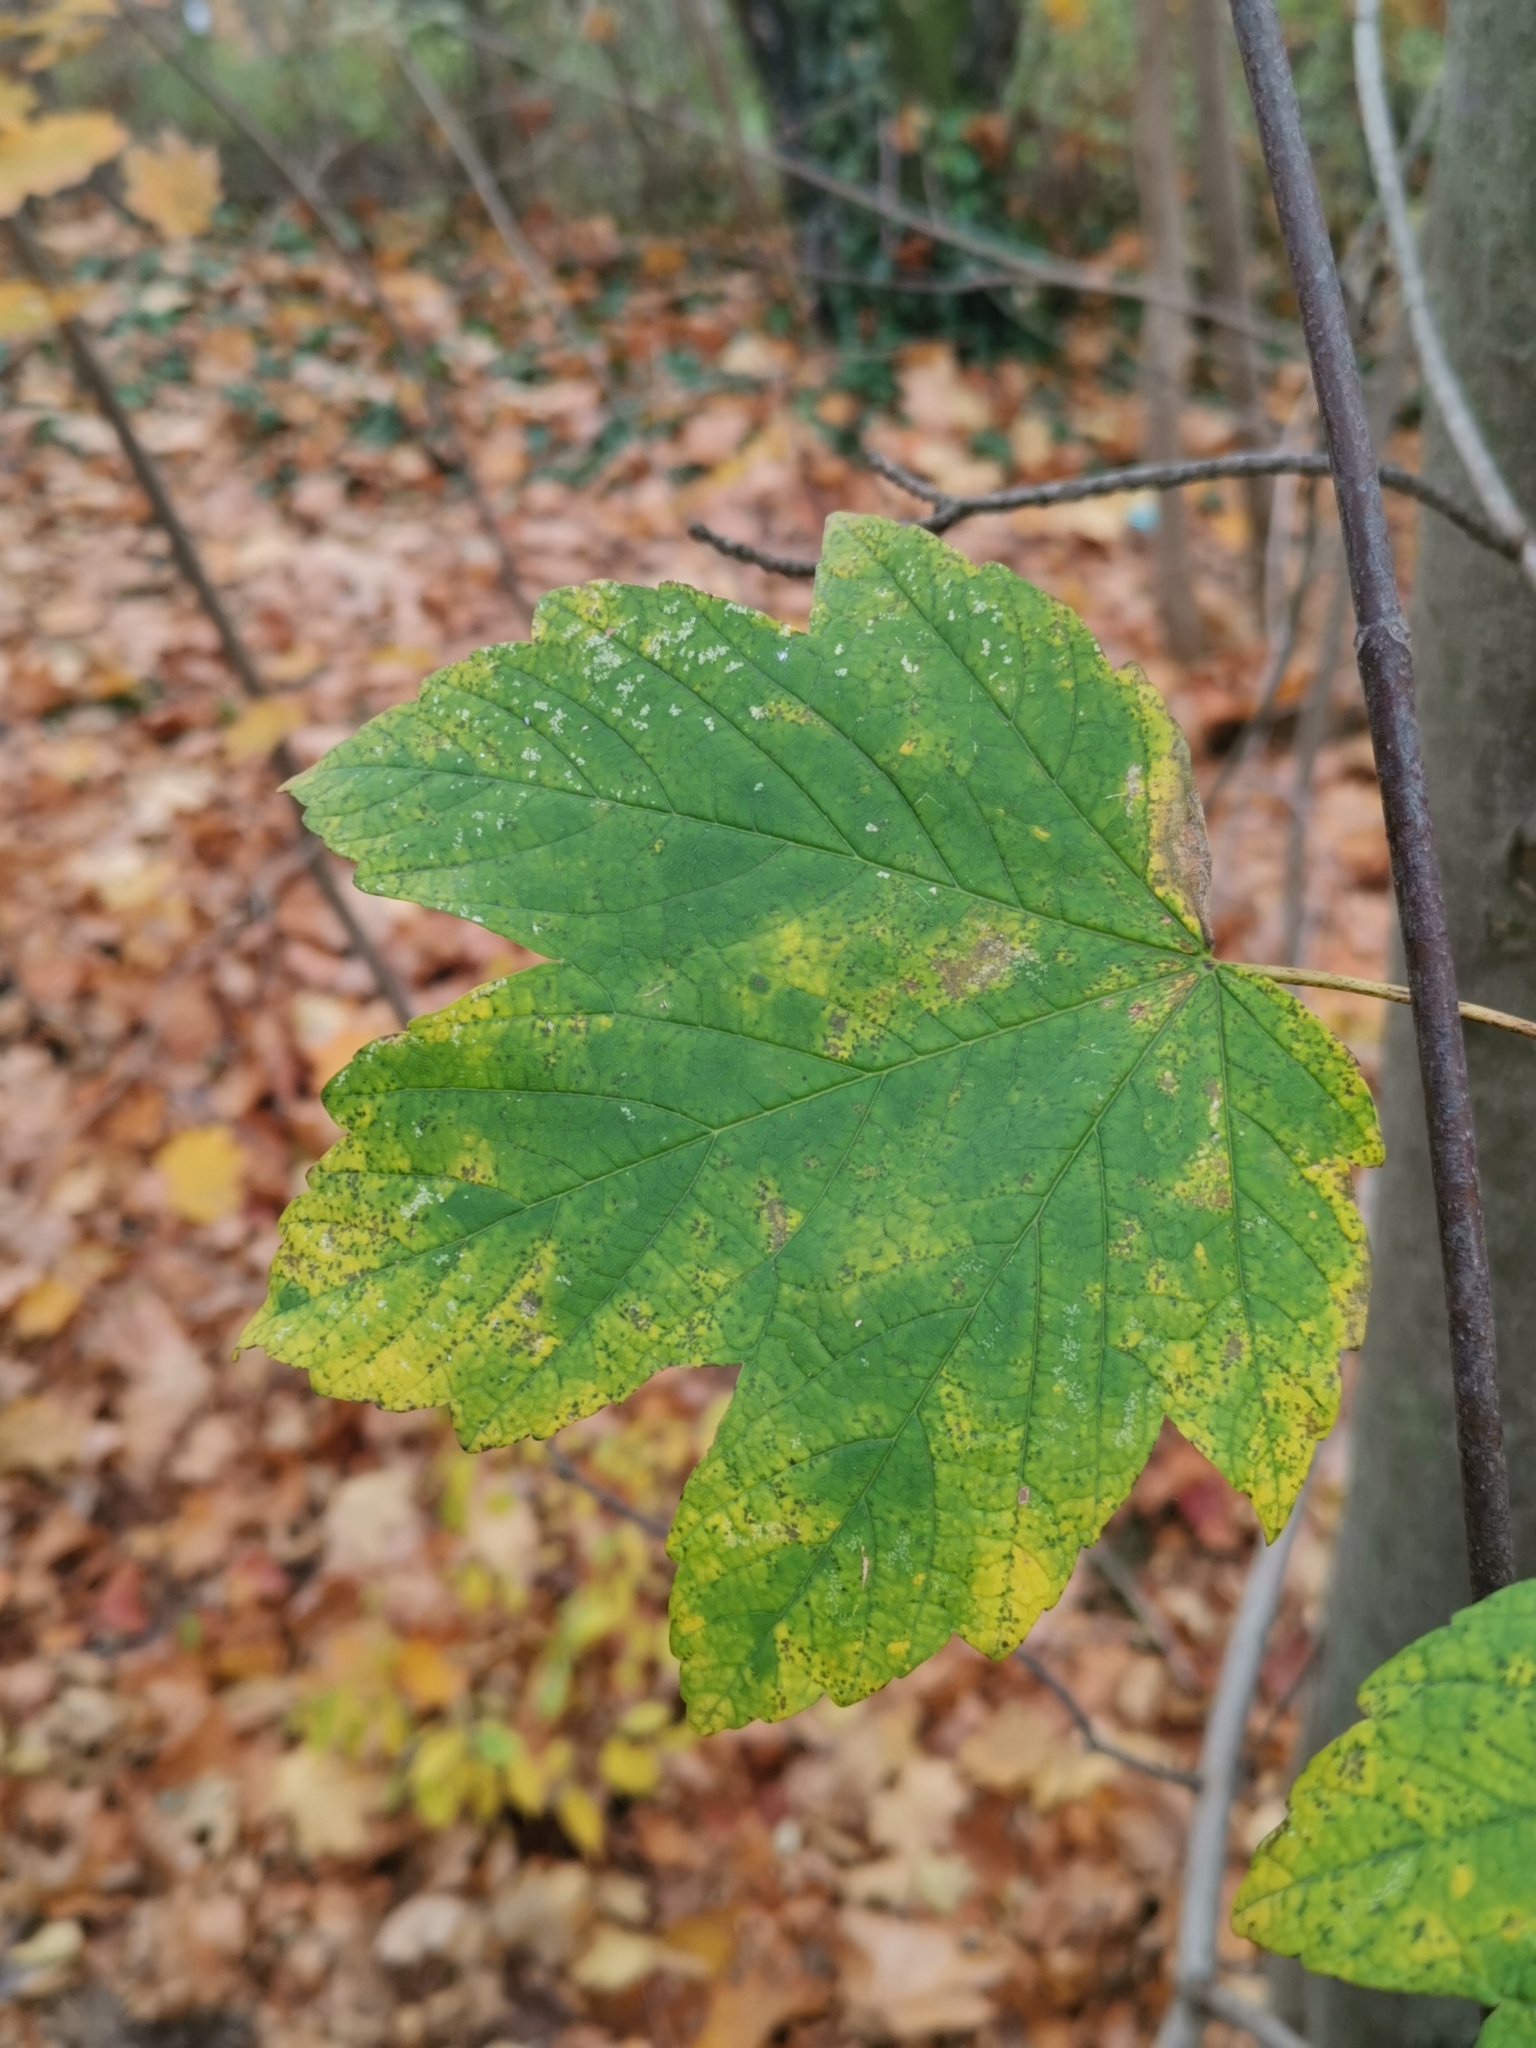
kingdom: Plantae
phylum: Tracheophyta
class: Magnoliopsida
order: Sapindales
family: Sapindaceae
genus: Acer
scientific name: Acer pseudoplatanus
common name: Sycamore
